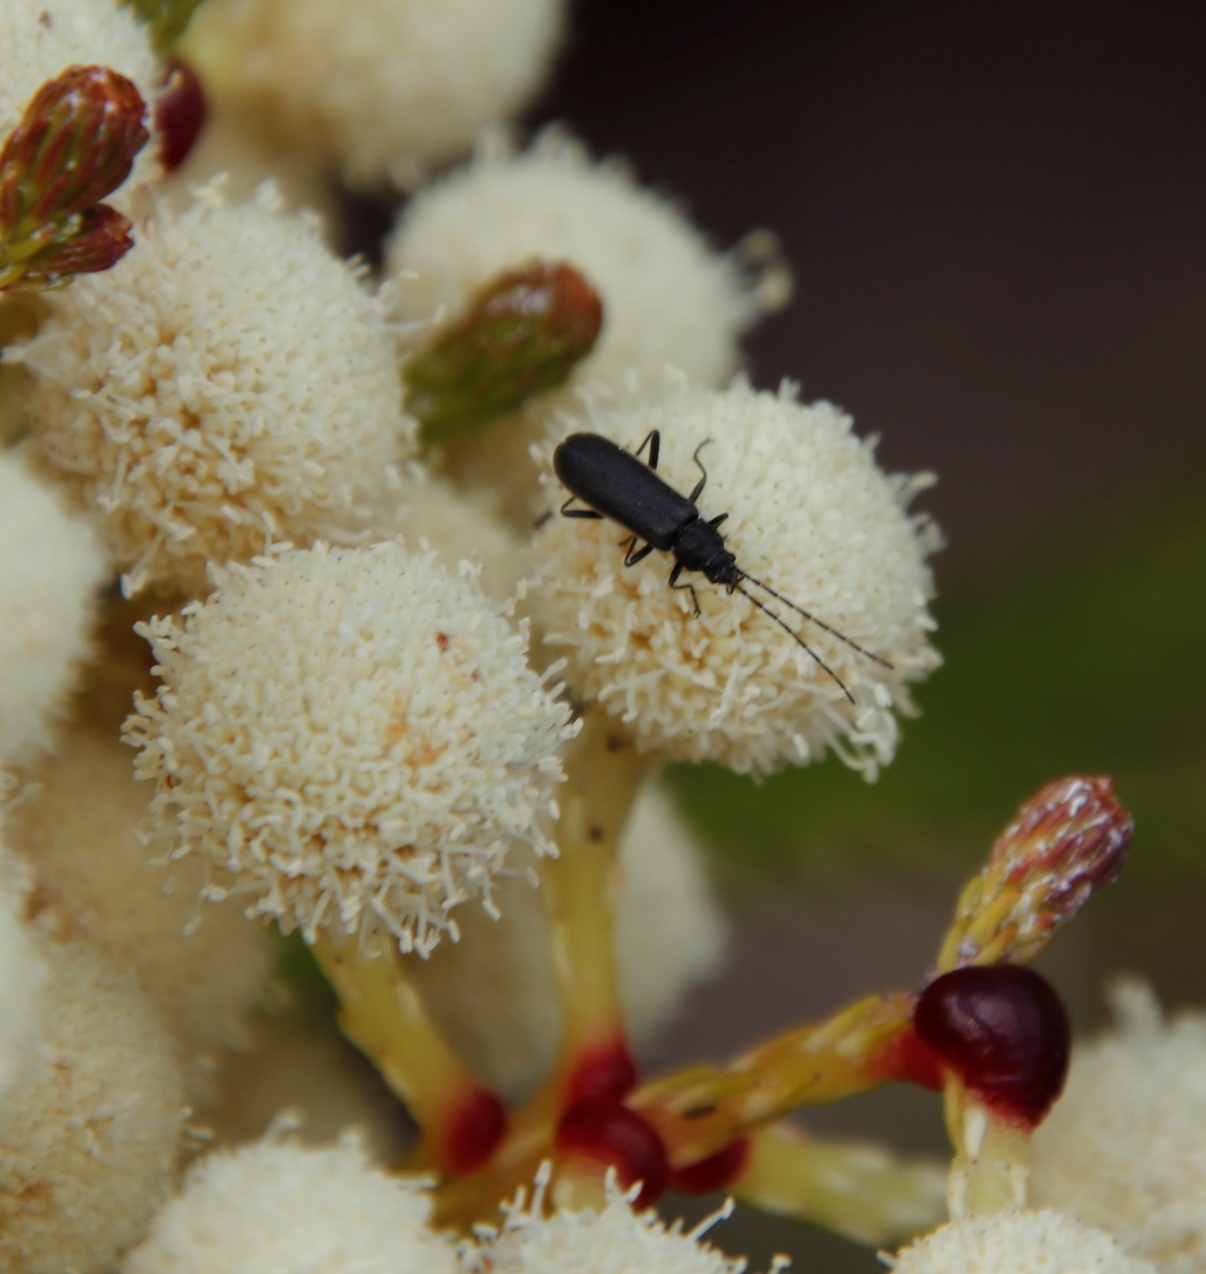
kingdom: Animalia
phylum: Arthropoda
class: Insecta
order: Coleoptera
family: Cantharidae
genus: Afronycha
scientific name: Afronycha
